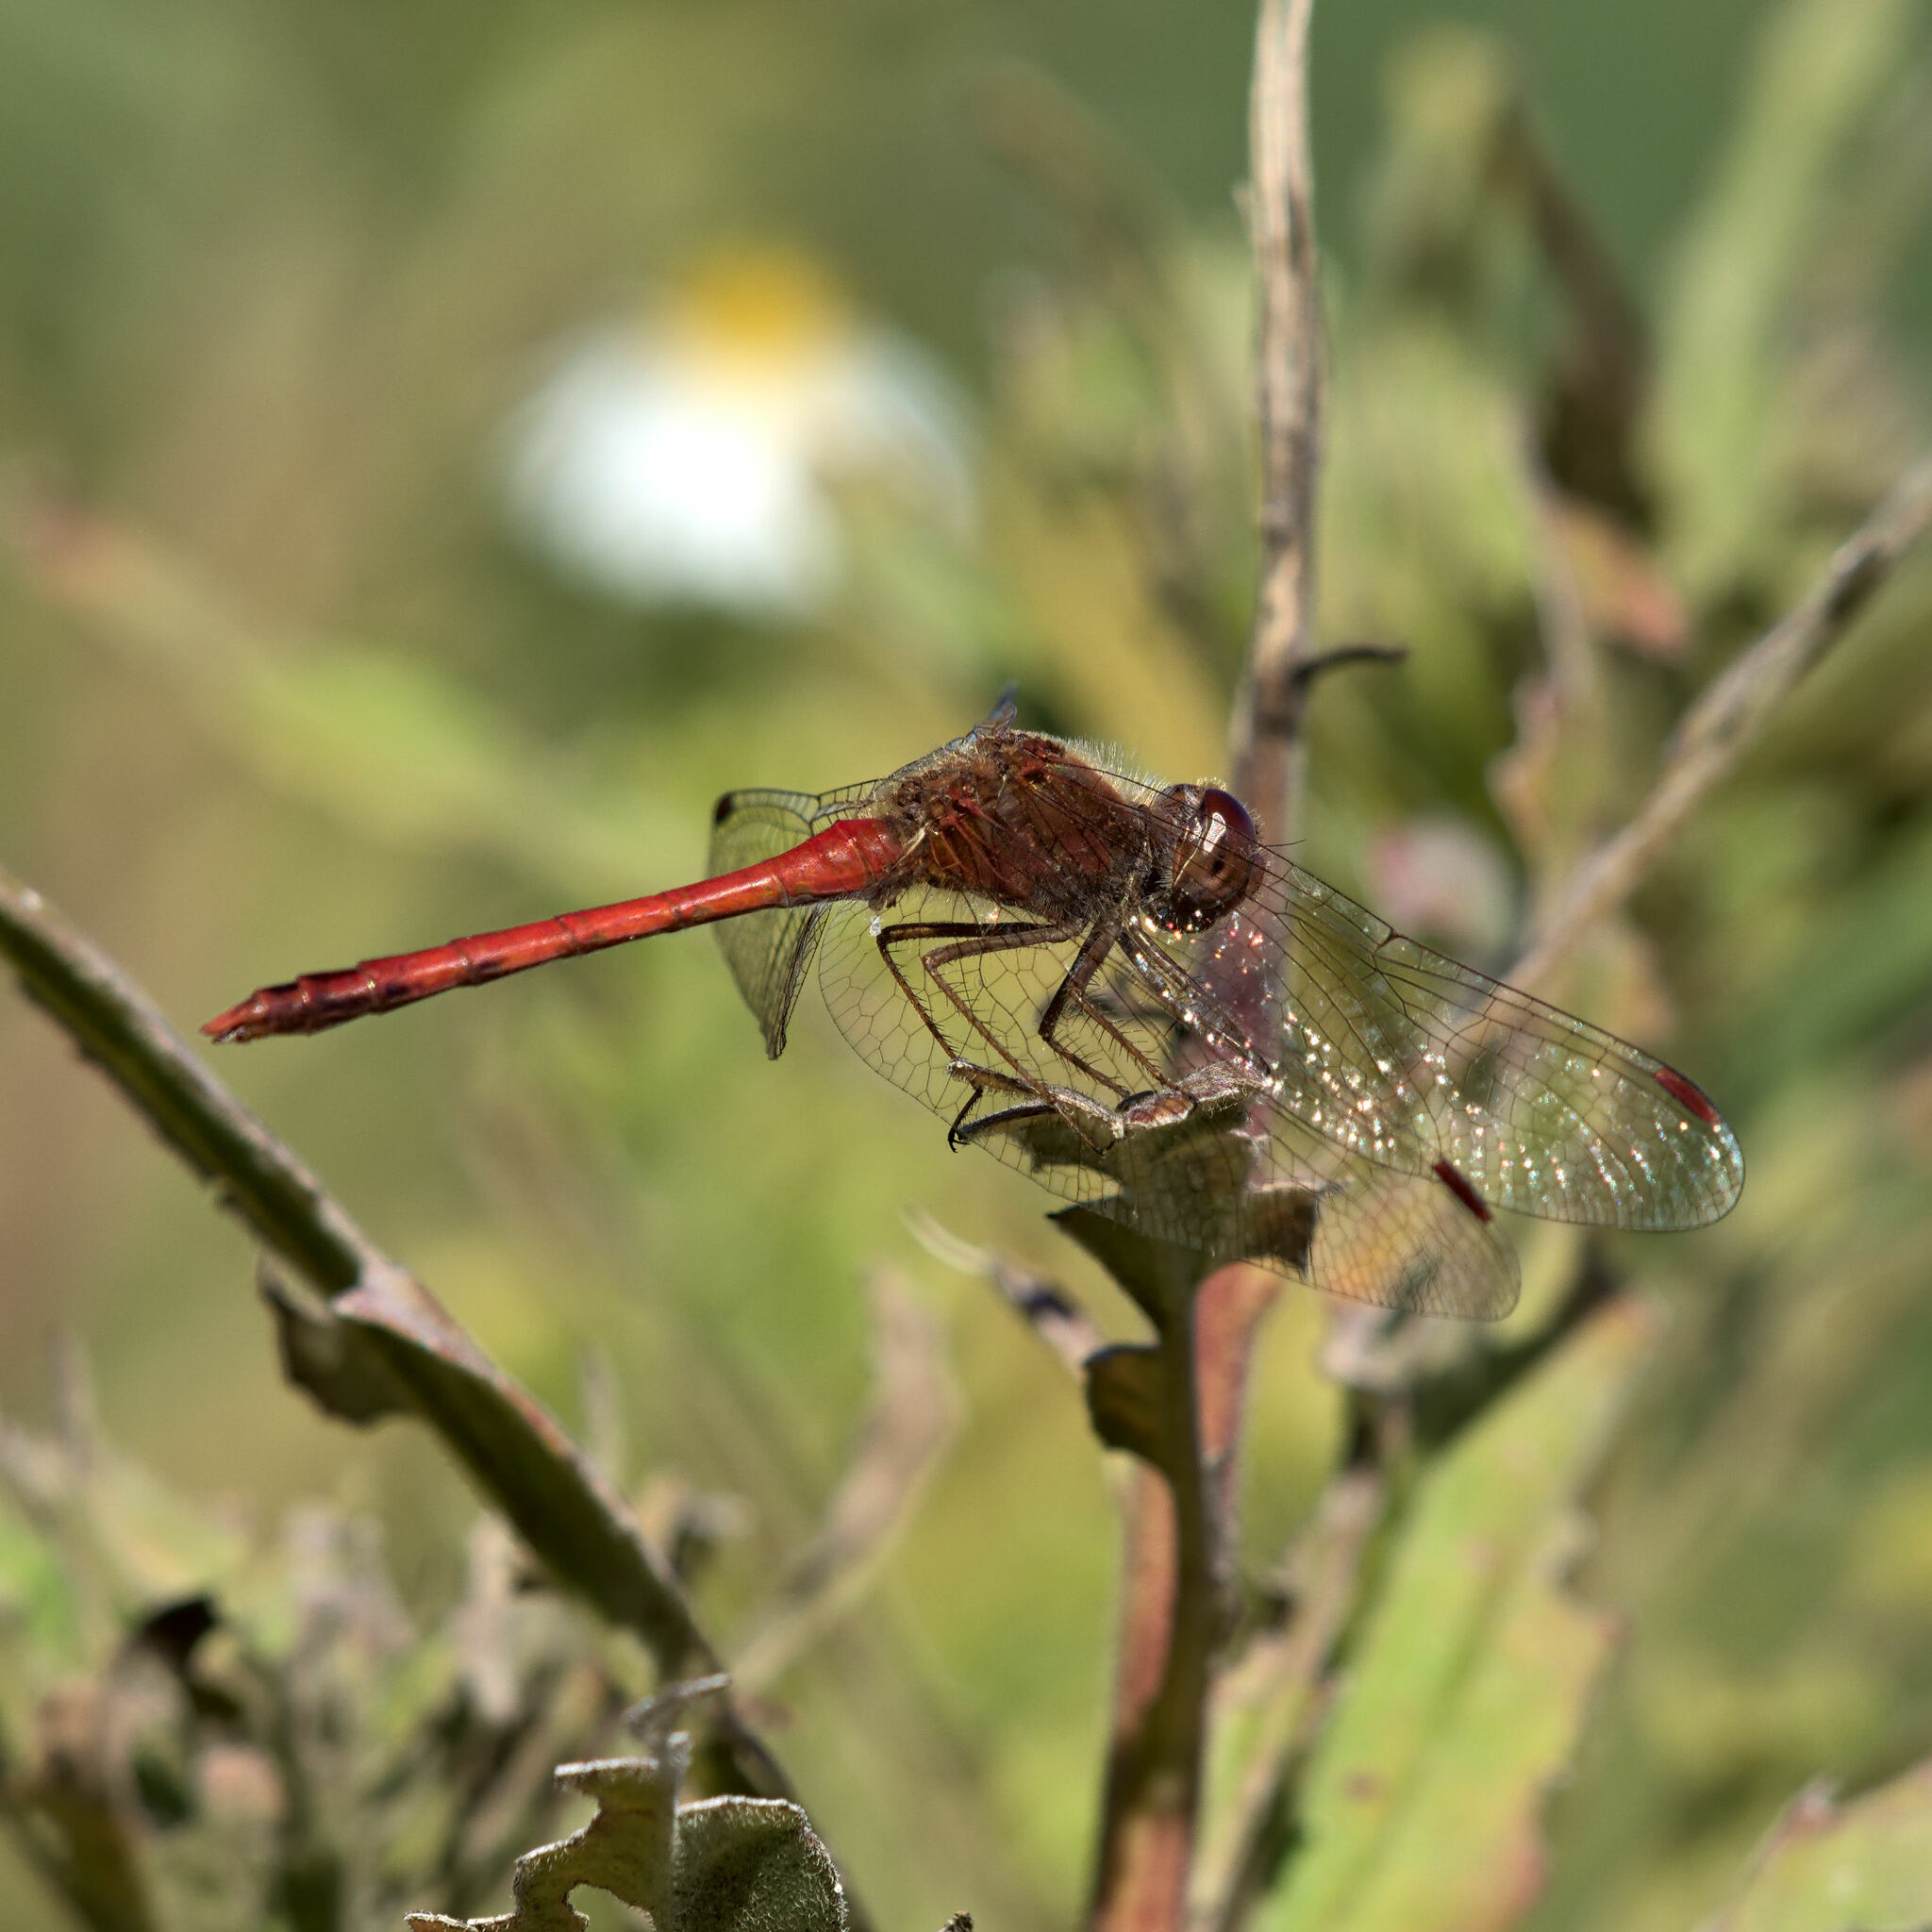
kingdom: Animalia
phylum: Arthropoda
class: Insecta
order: Odonata
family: Libellulidae
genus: Sympetrum
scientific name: Sympetrum vicinum
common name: Autumn meadowhawk
